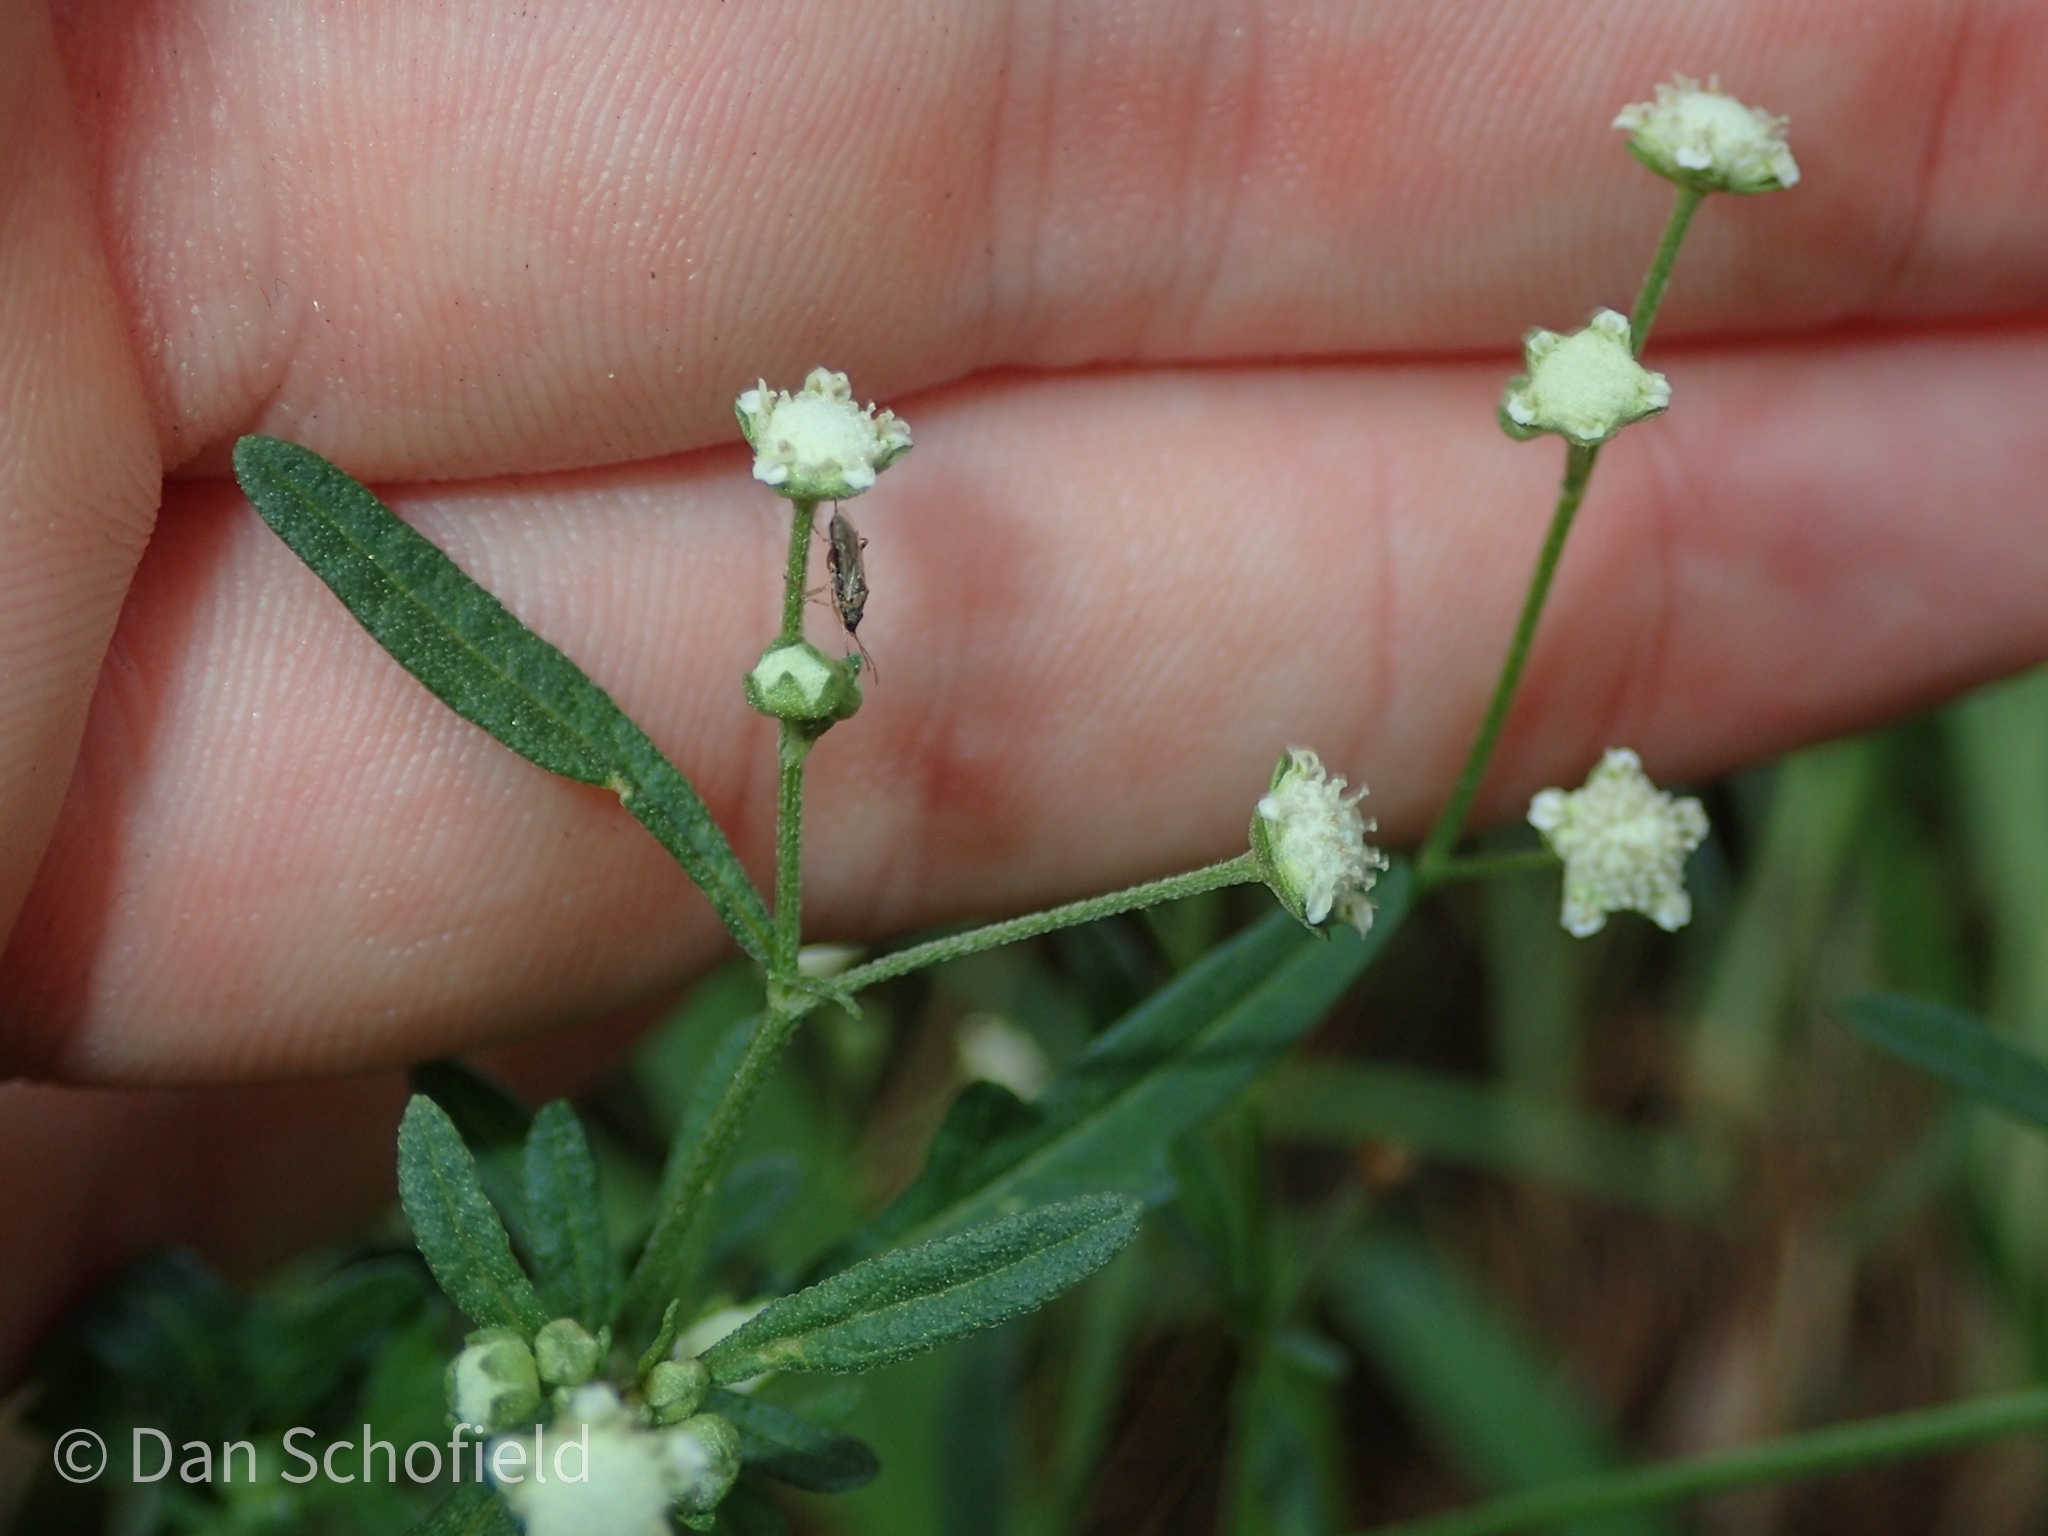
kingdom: Plantae
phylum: Tracheophyta
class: Magnoliopsida
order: Asterales
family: Asteraceae
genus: Parthenium
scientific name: Parthenium hysterophorus
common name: Santa maria feverfew
